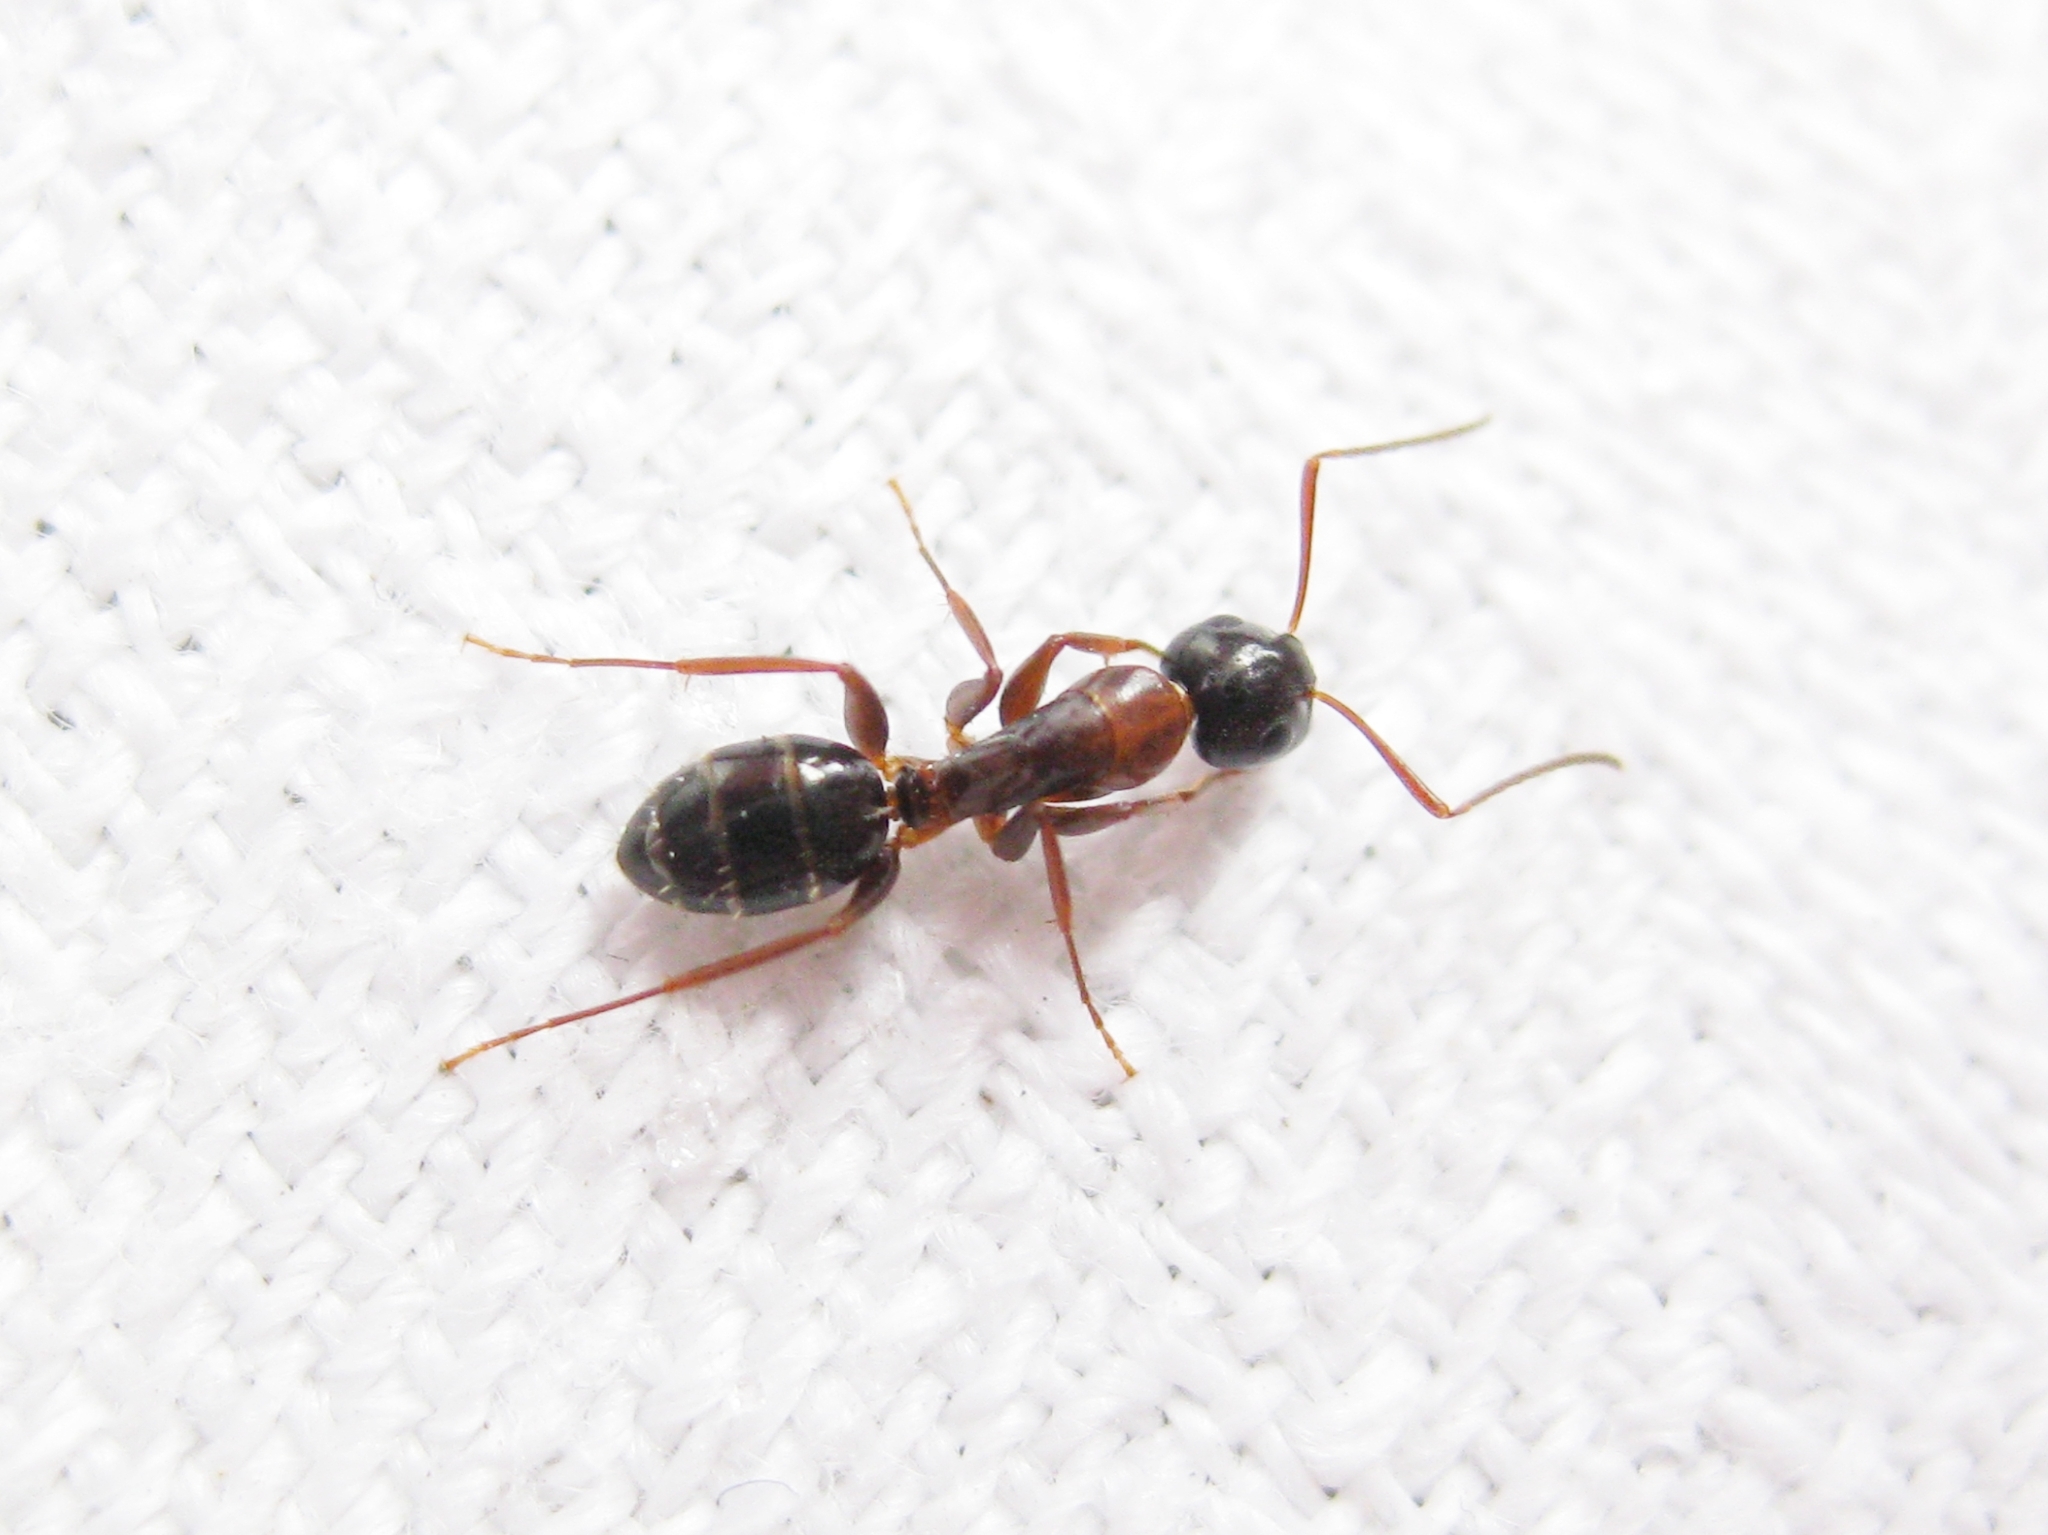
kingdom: Animalia
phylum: Arthropoda
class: Insecta
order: Hymenoptera
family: Formicidae
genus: Camponotus
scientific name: Camponotus fallax
